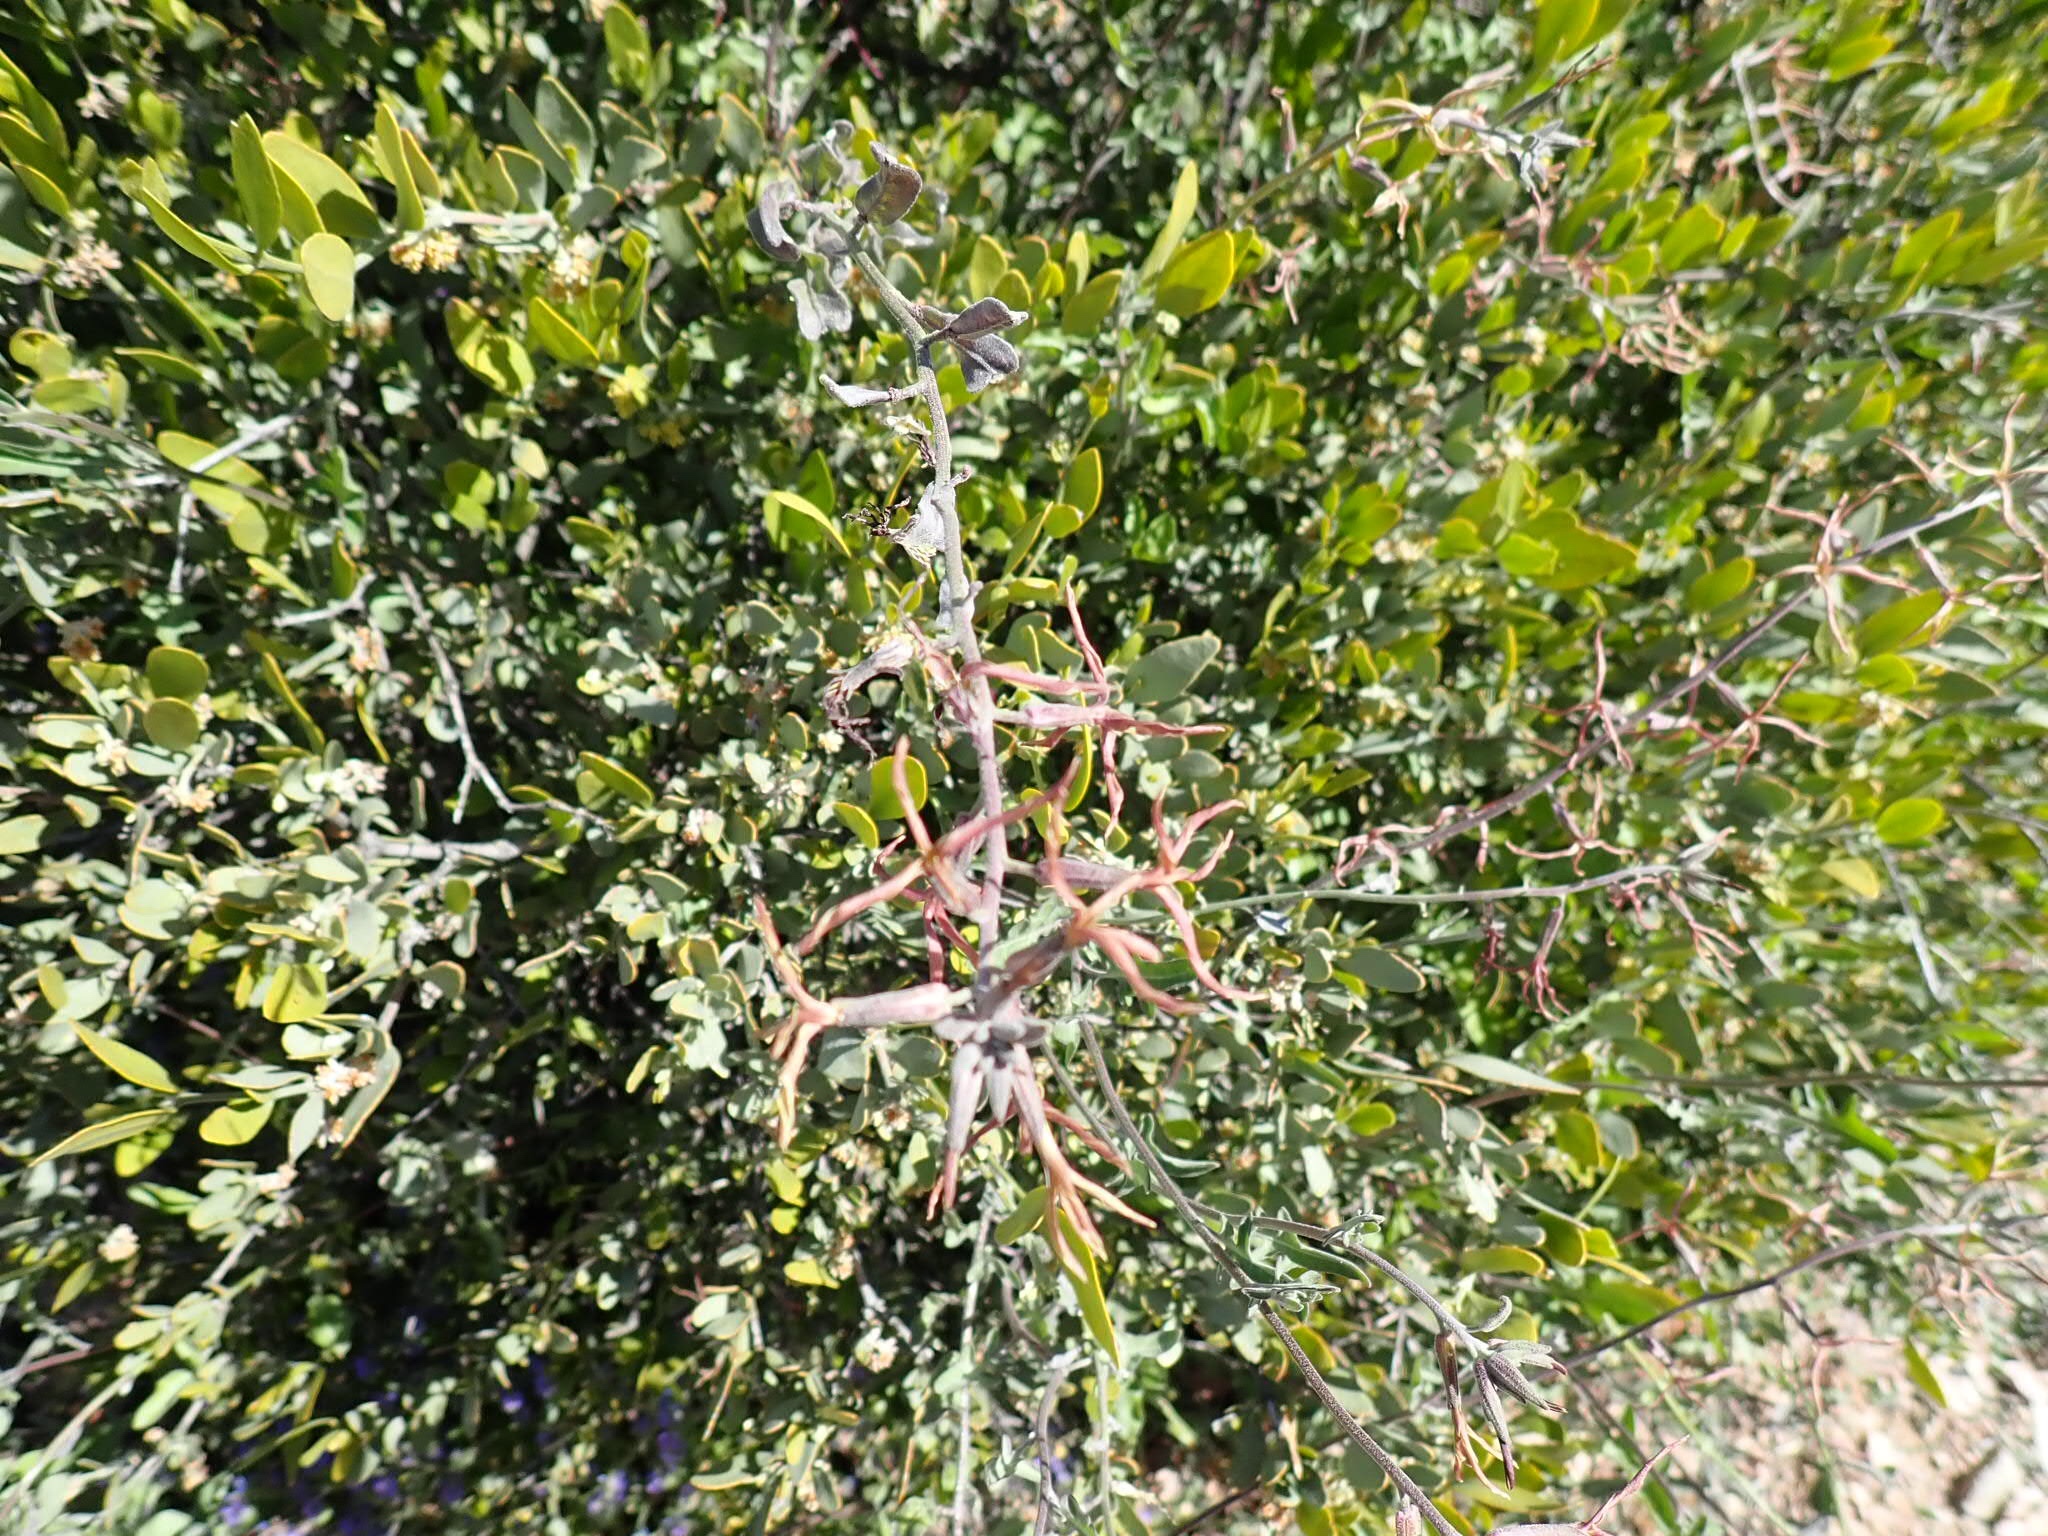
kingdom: Plantae
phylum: Tracheophyta
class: Magnoliopsida
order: Brassicales
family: Brassicaceae
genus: Lyrocarpa
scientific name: Lyrocarpa coulteri
